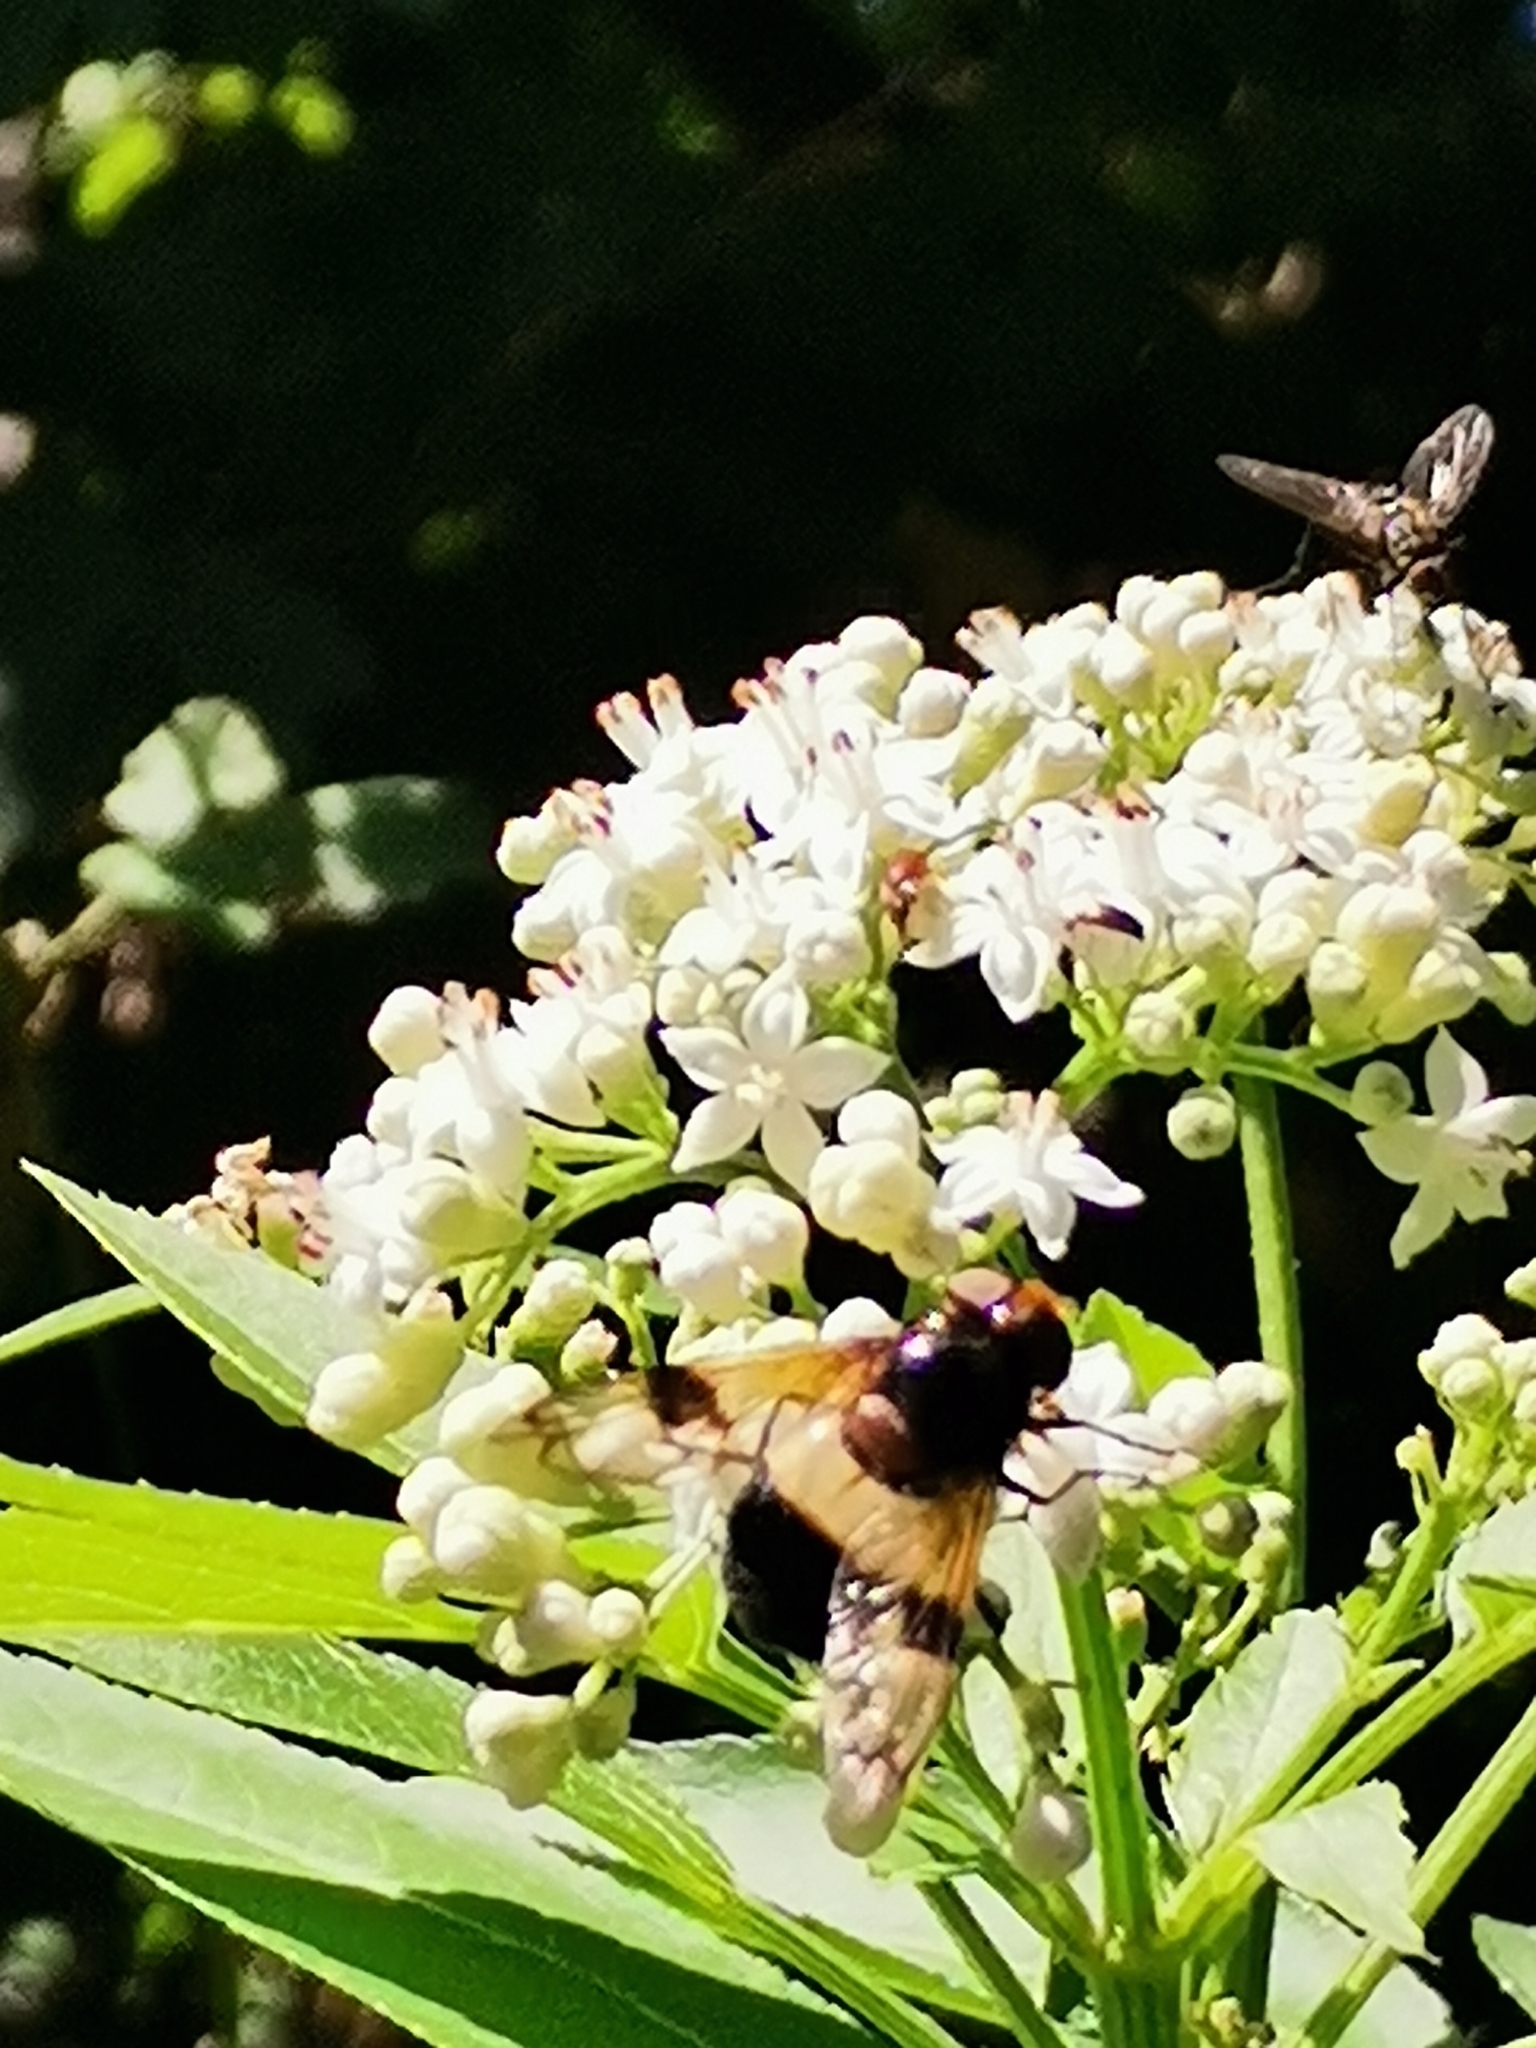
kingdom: Animalia
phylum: Arthropoda
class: Insecta
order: Diptera
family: Syrphidae
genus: Volucella
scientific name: Volucella pellucens
